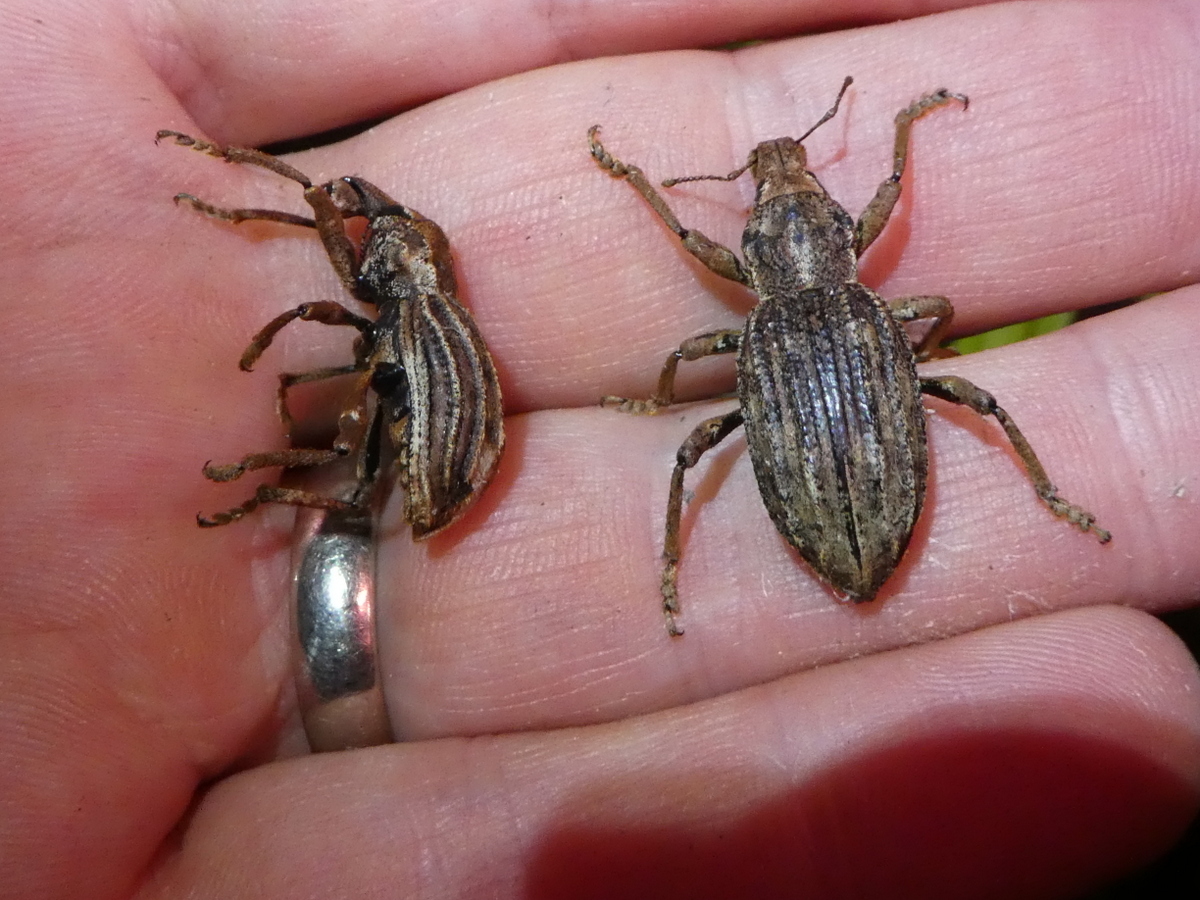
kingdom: Animalia
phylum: Arthropoda
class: Insecta
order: Coleoptera
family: Curculionidae
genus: Anagotus
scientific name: Anagotus
